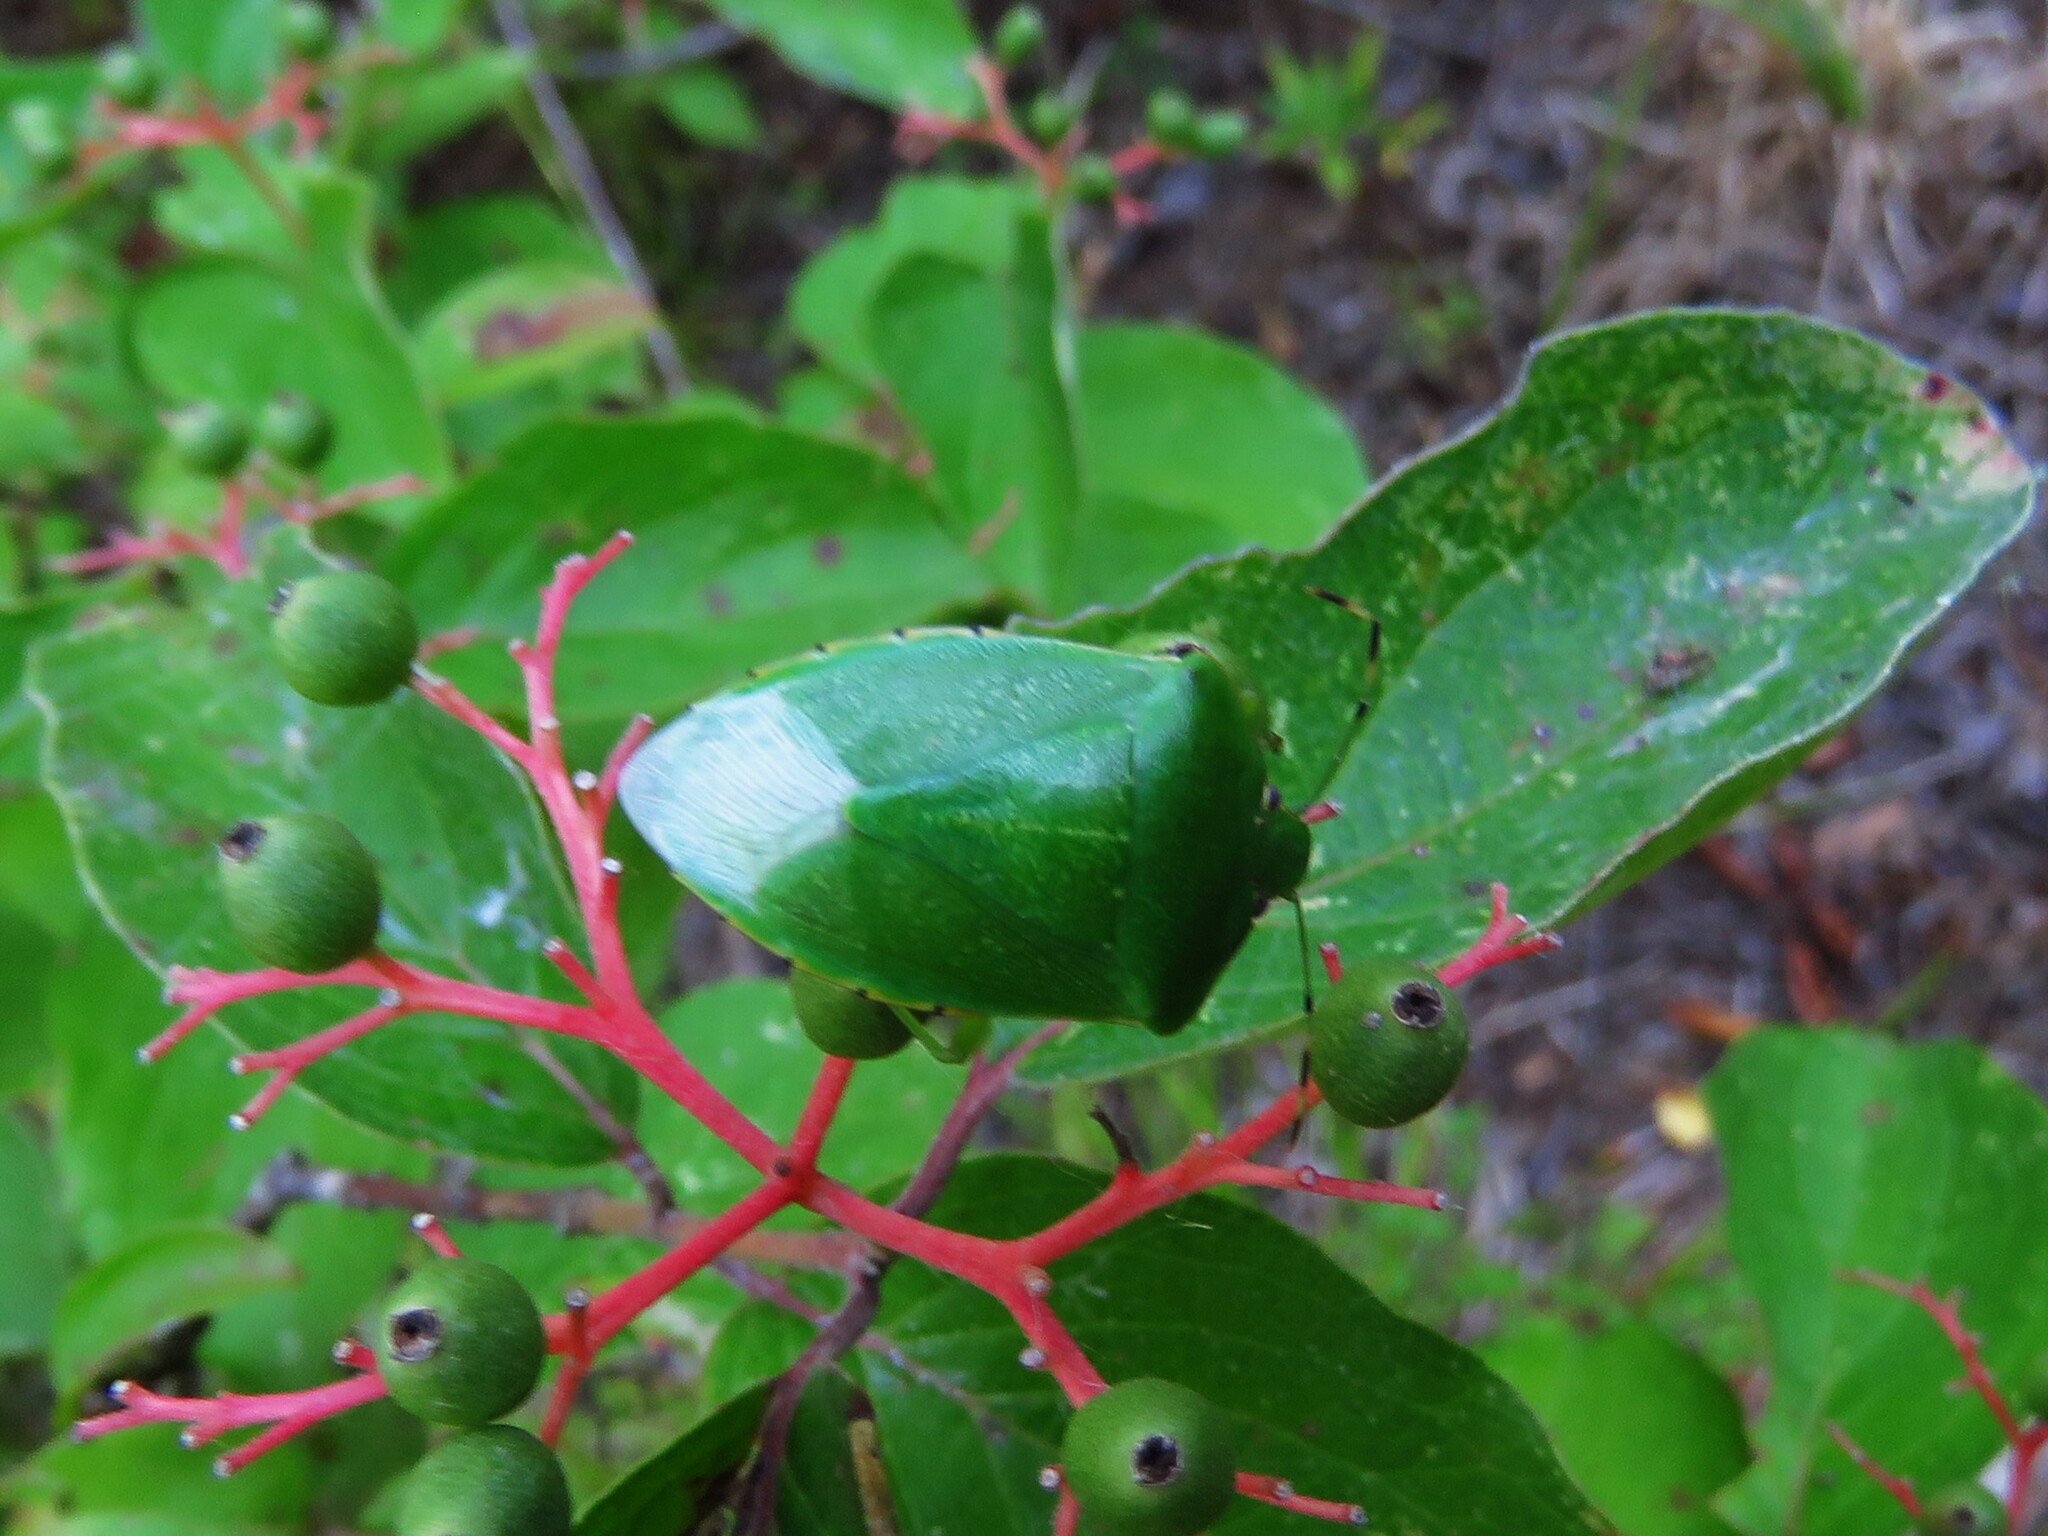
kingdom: Animalia
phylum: Arthropoda
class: Insecta
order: Hemiptera
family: Pentatomidae
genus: Chinavia
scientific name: Chinavia hilaris
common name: Green stink bug
